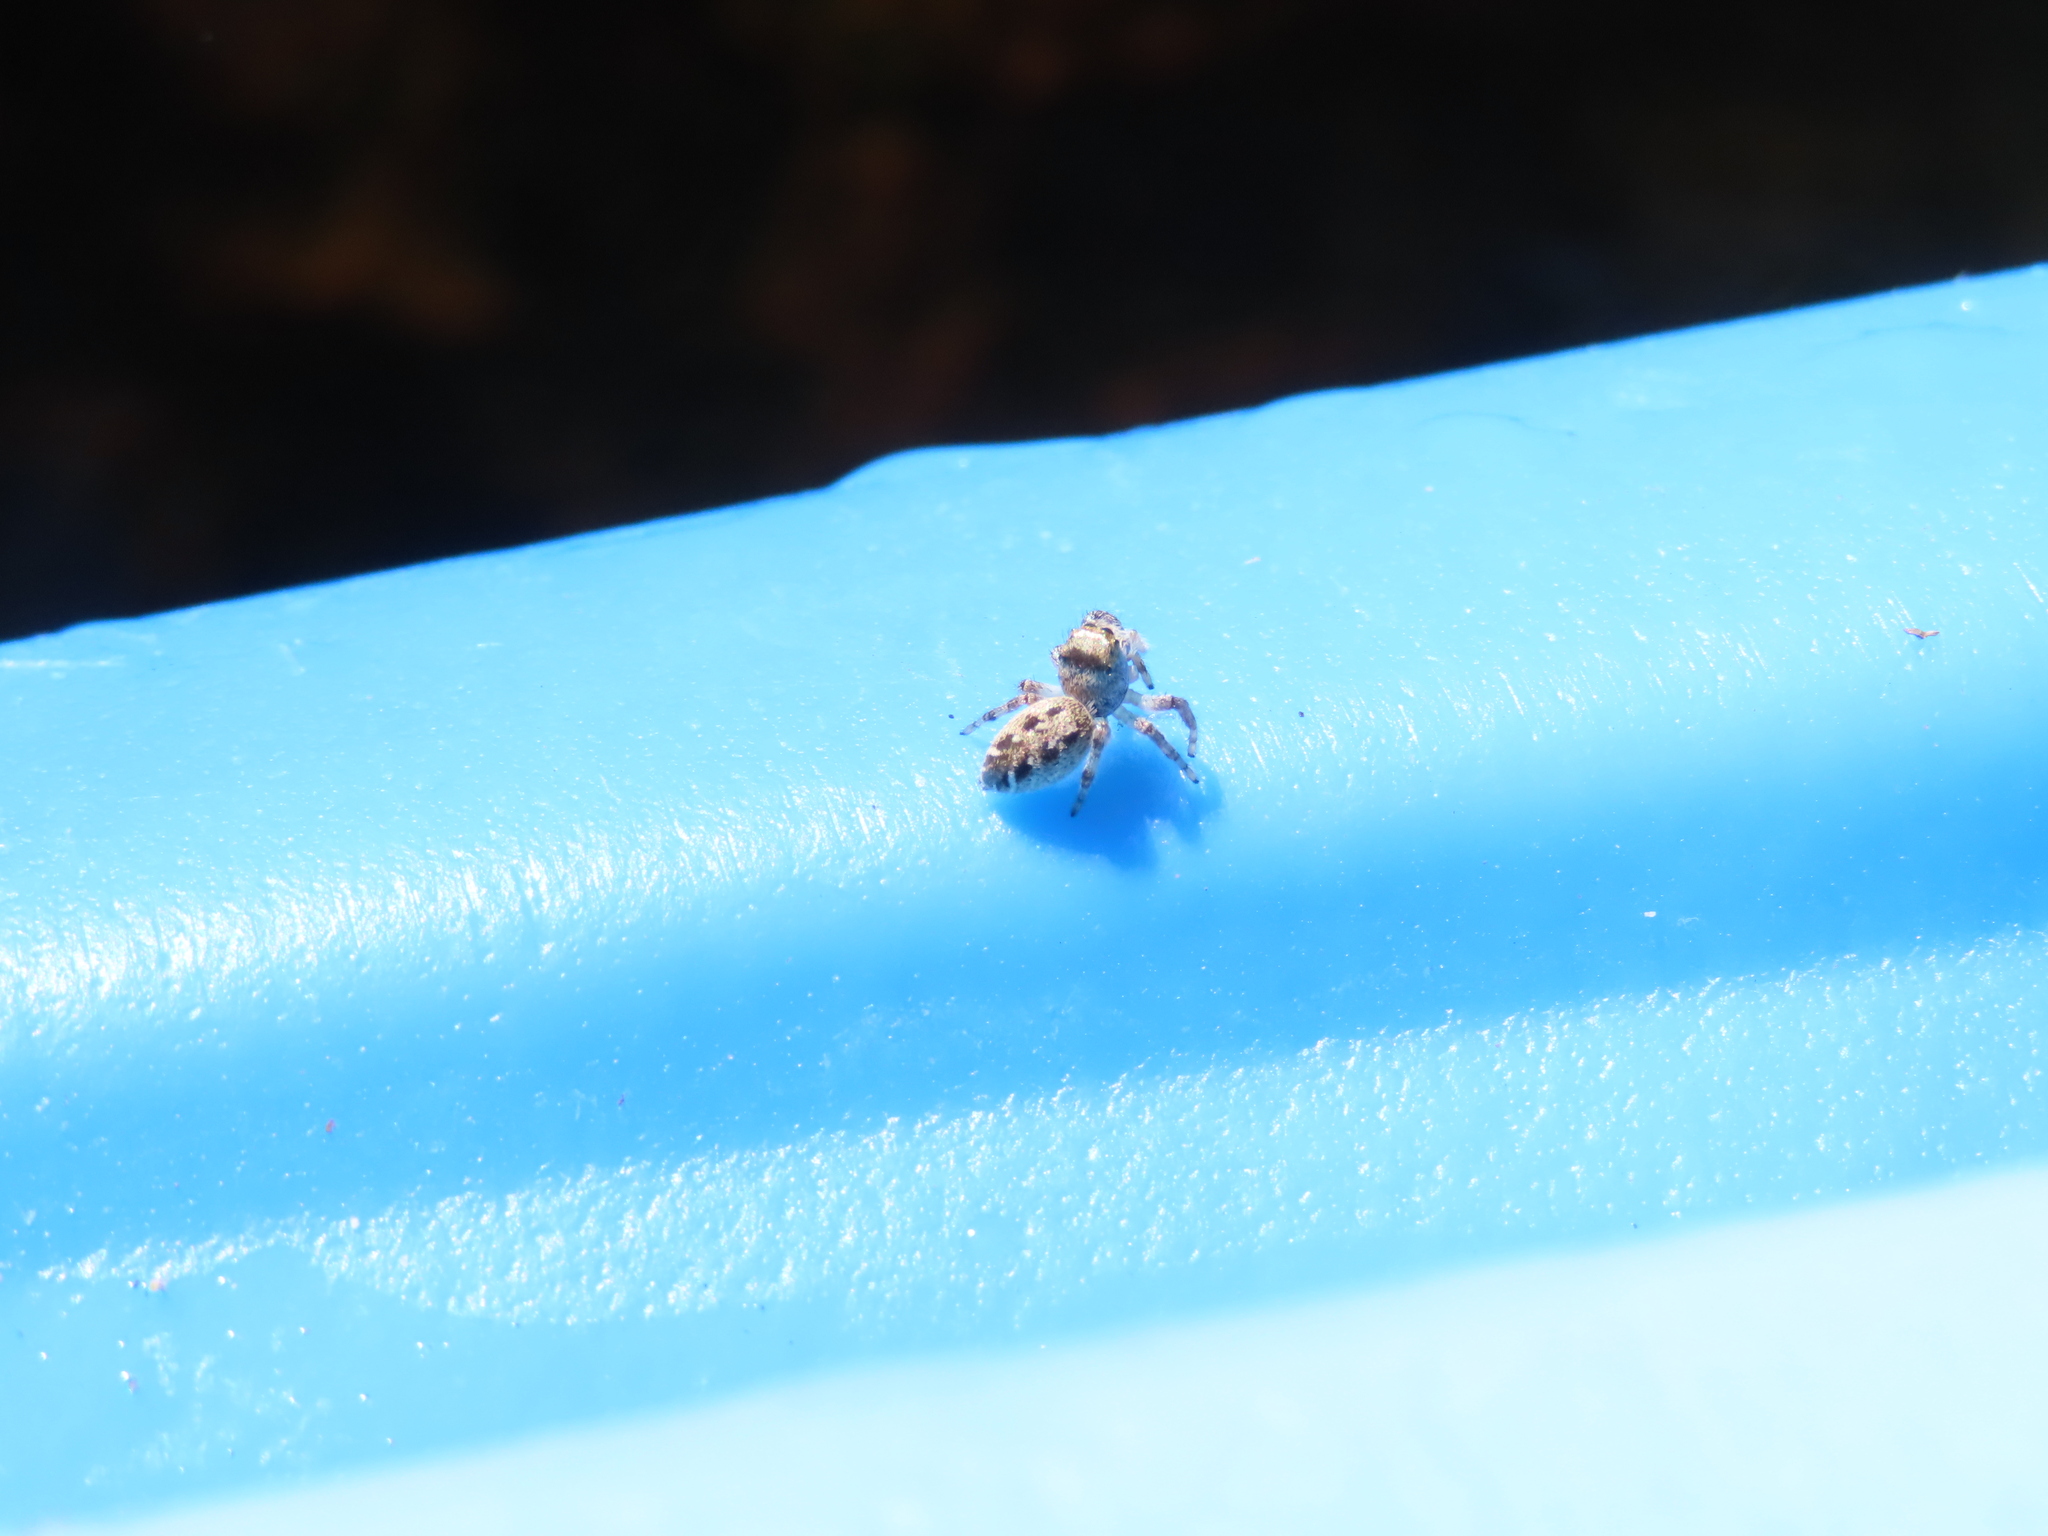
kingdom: Animalia
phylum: Arthropoda
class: Arachnida
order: Araneae
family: Salticidae
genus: Eris
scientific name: Eris militaris
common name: Bronze jumper
